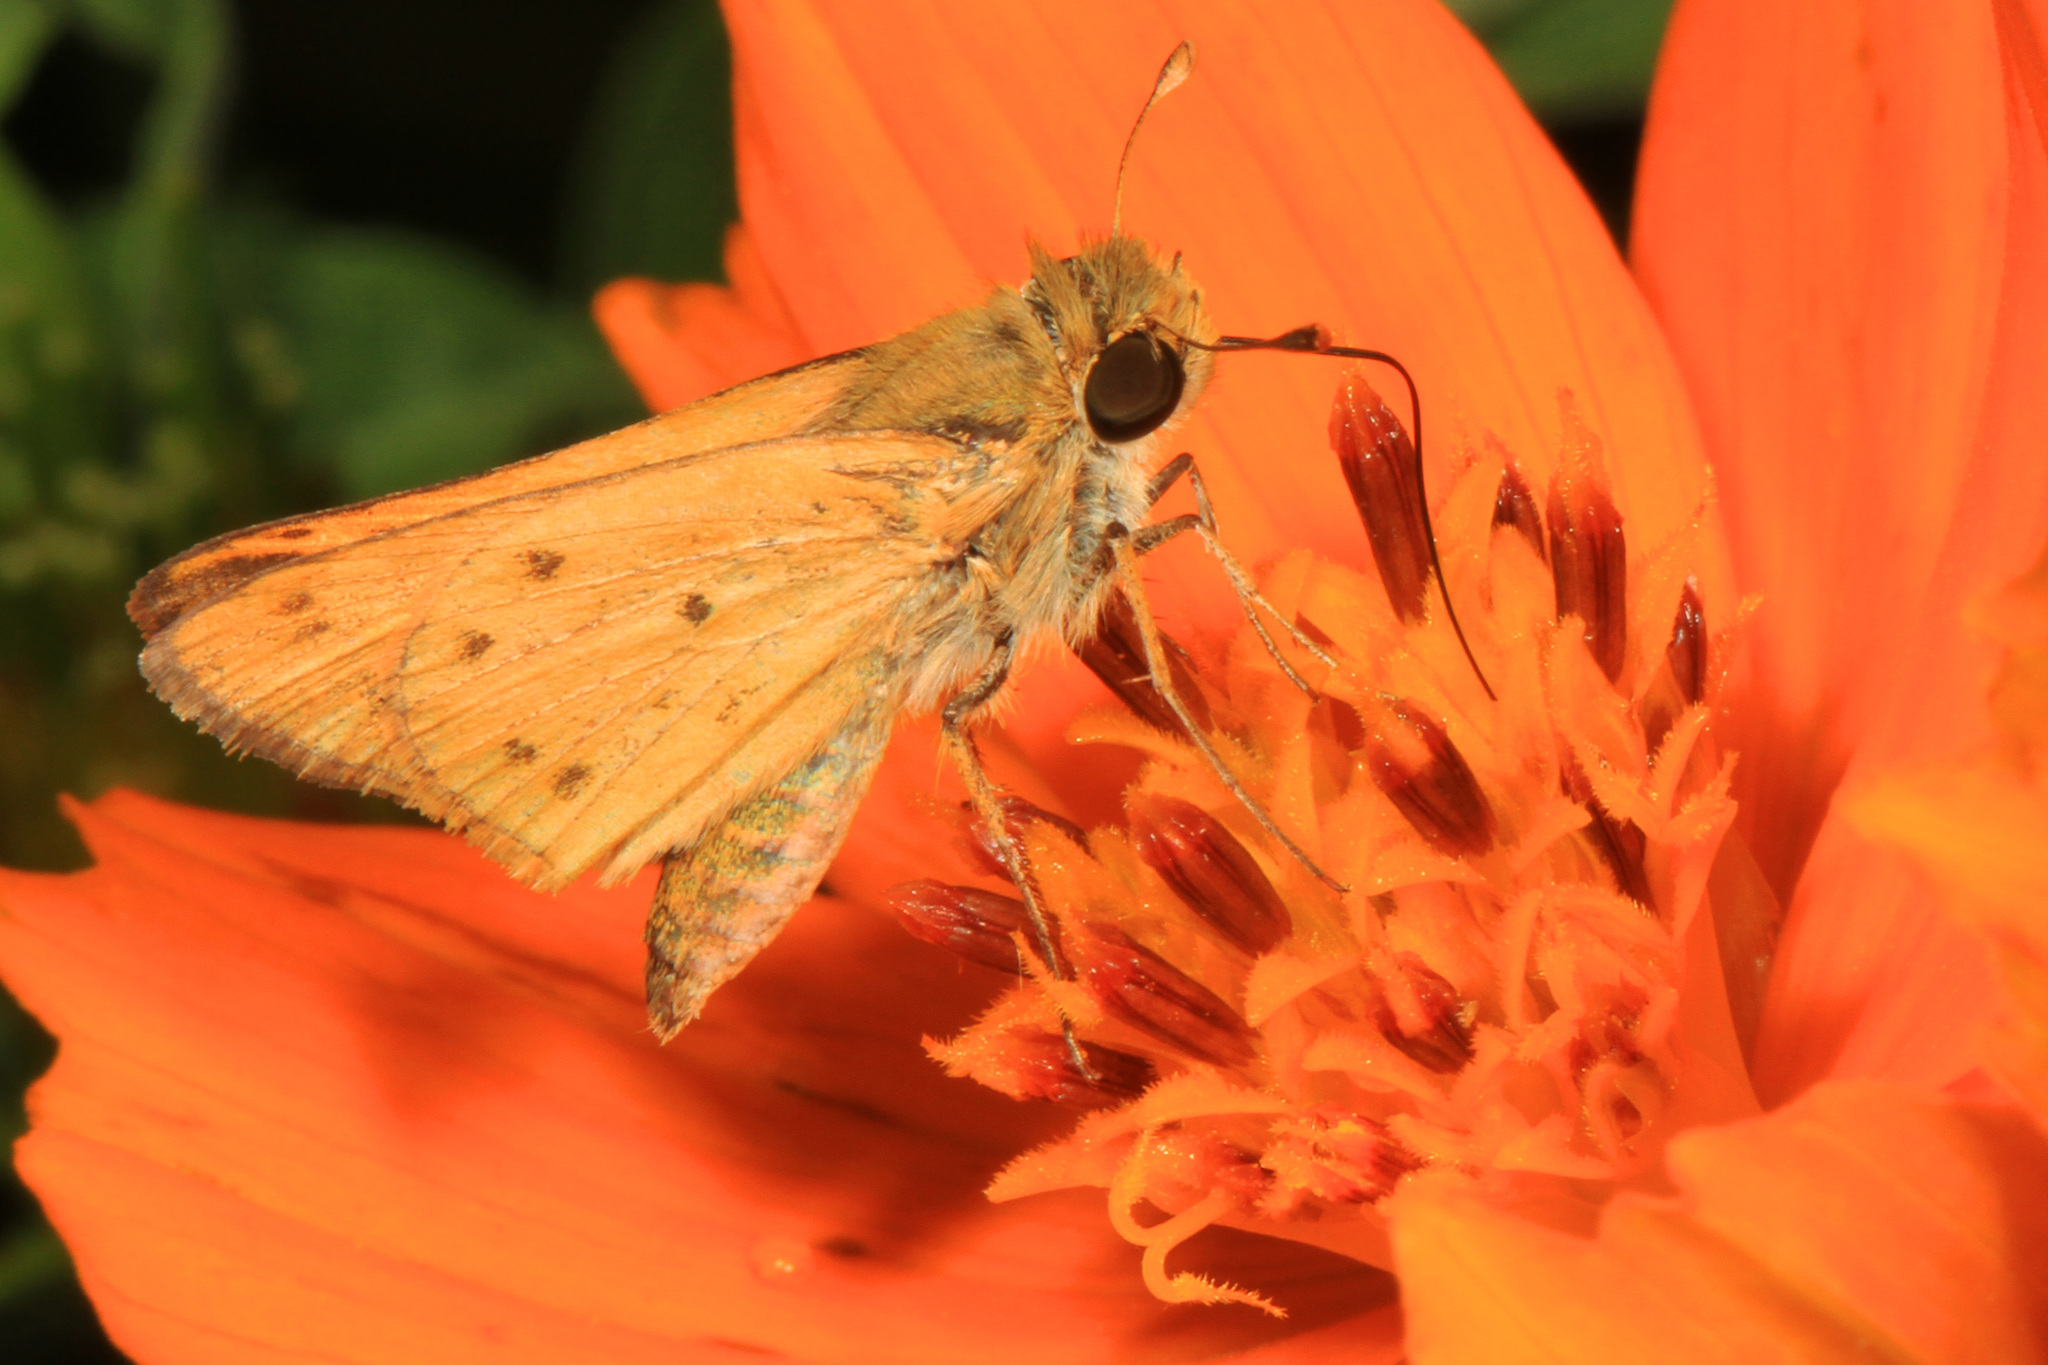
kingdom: Animalia
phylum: Arthropoda
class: Insecta
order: Lepidoptera
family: Hesperiidae
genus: Hylephila
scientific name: Hylephila phyleus
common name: Fiery skipper
